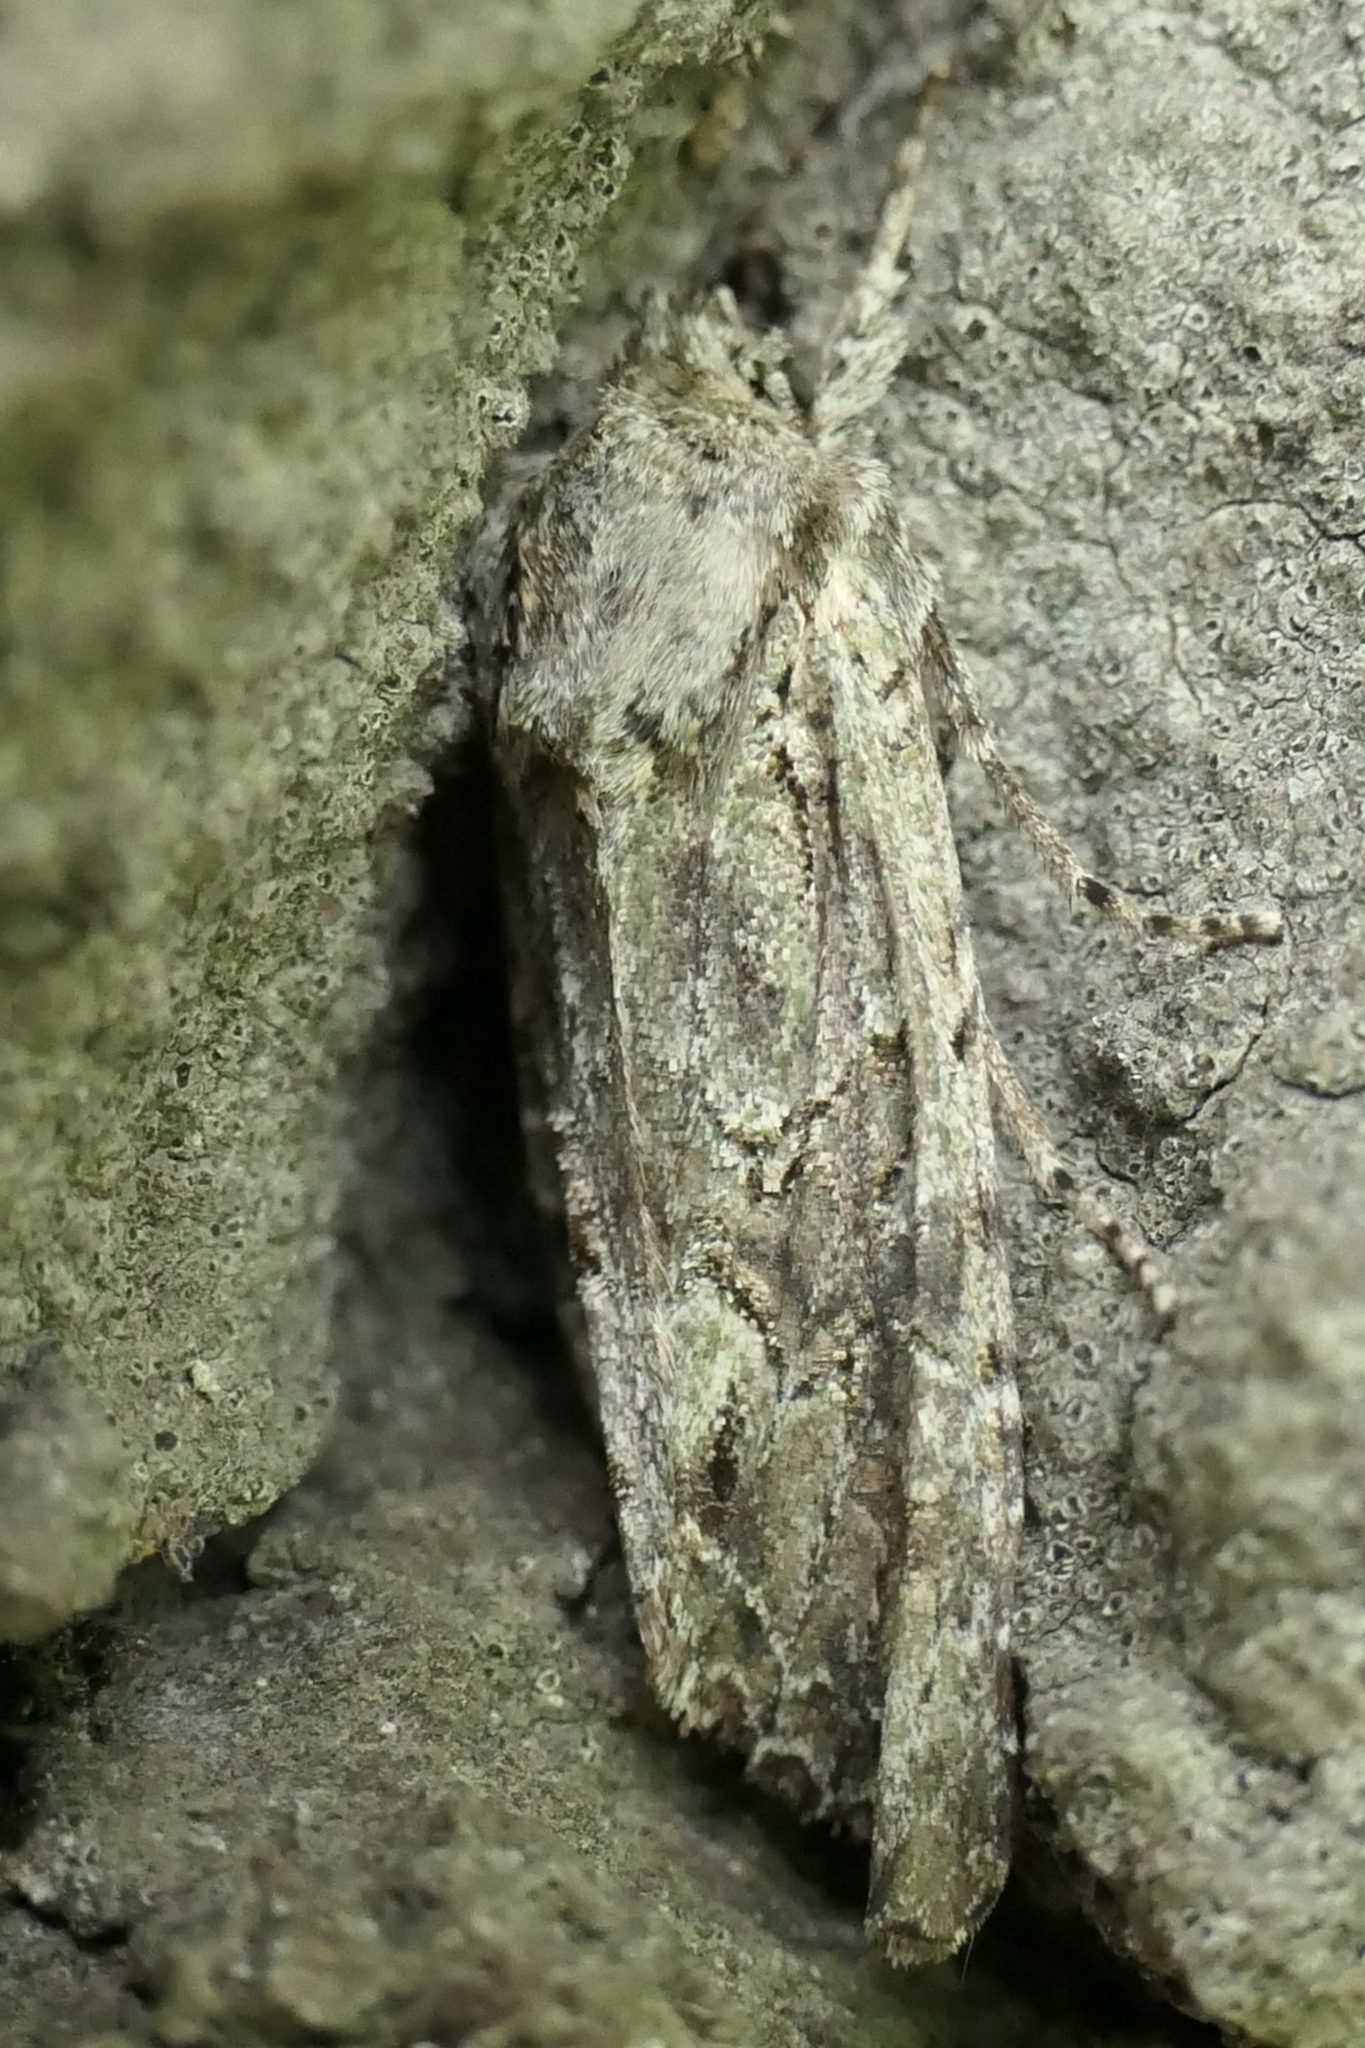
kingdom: Animalia
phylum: Arthropoda
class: Insecta
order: Lepidoptera
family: Noctuidae
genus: Ichneutica
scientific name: Ichneutica mutans
